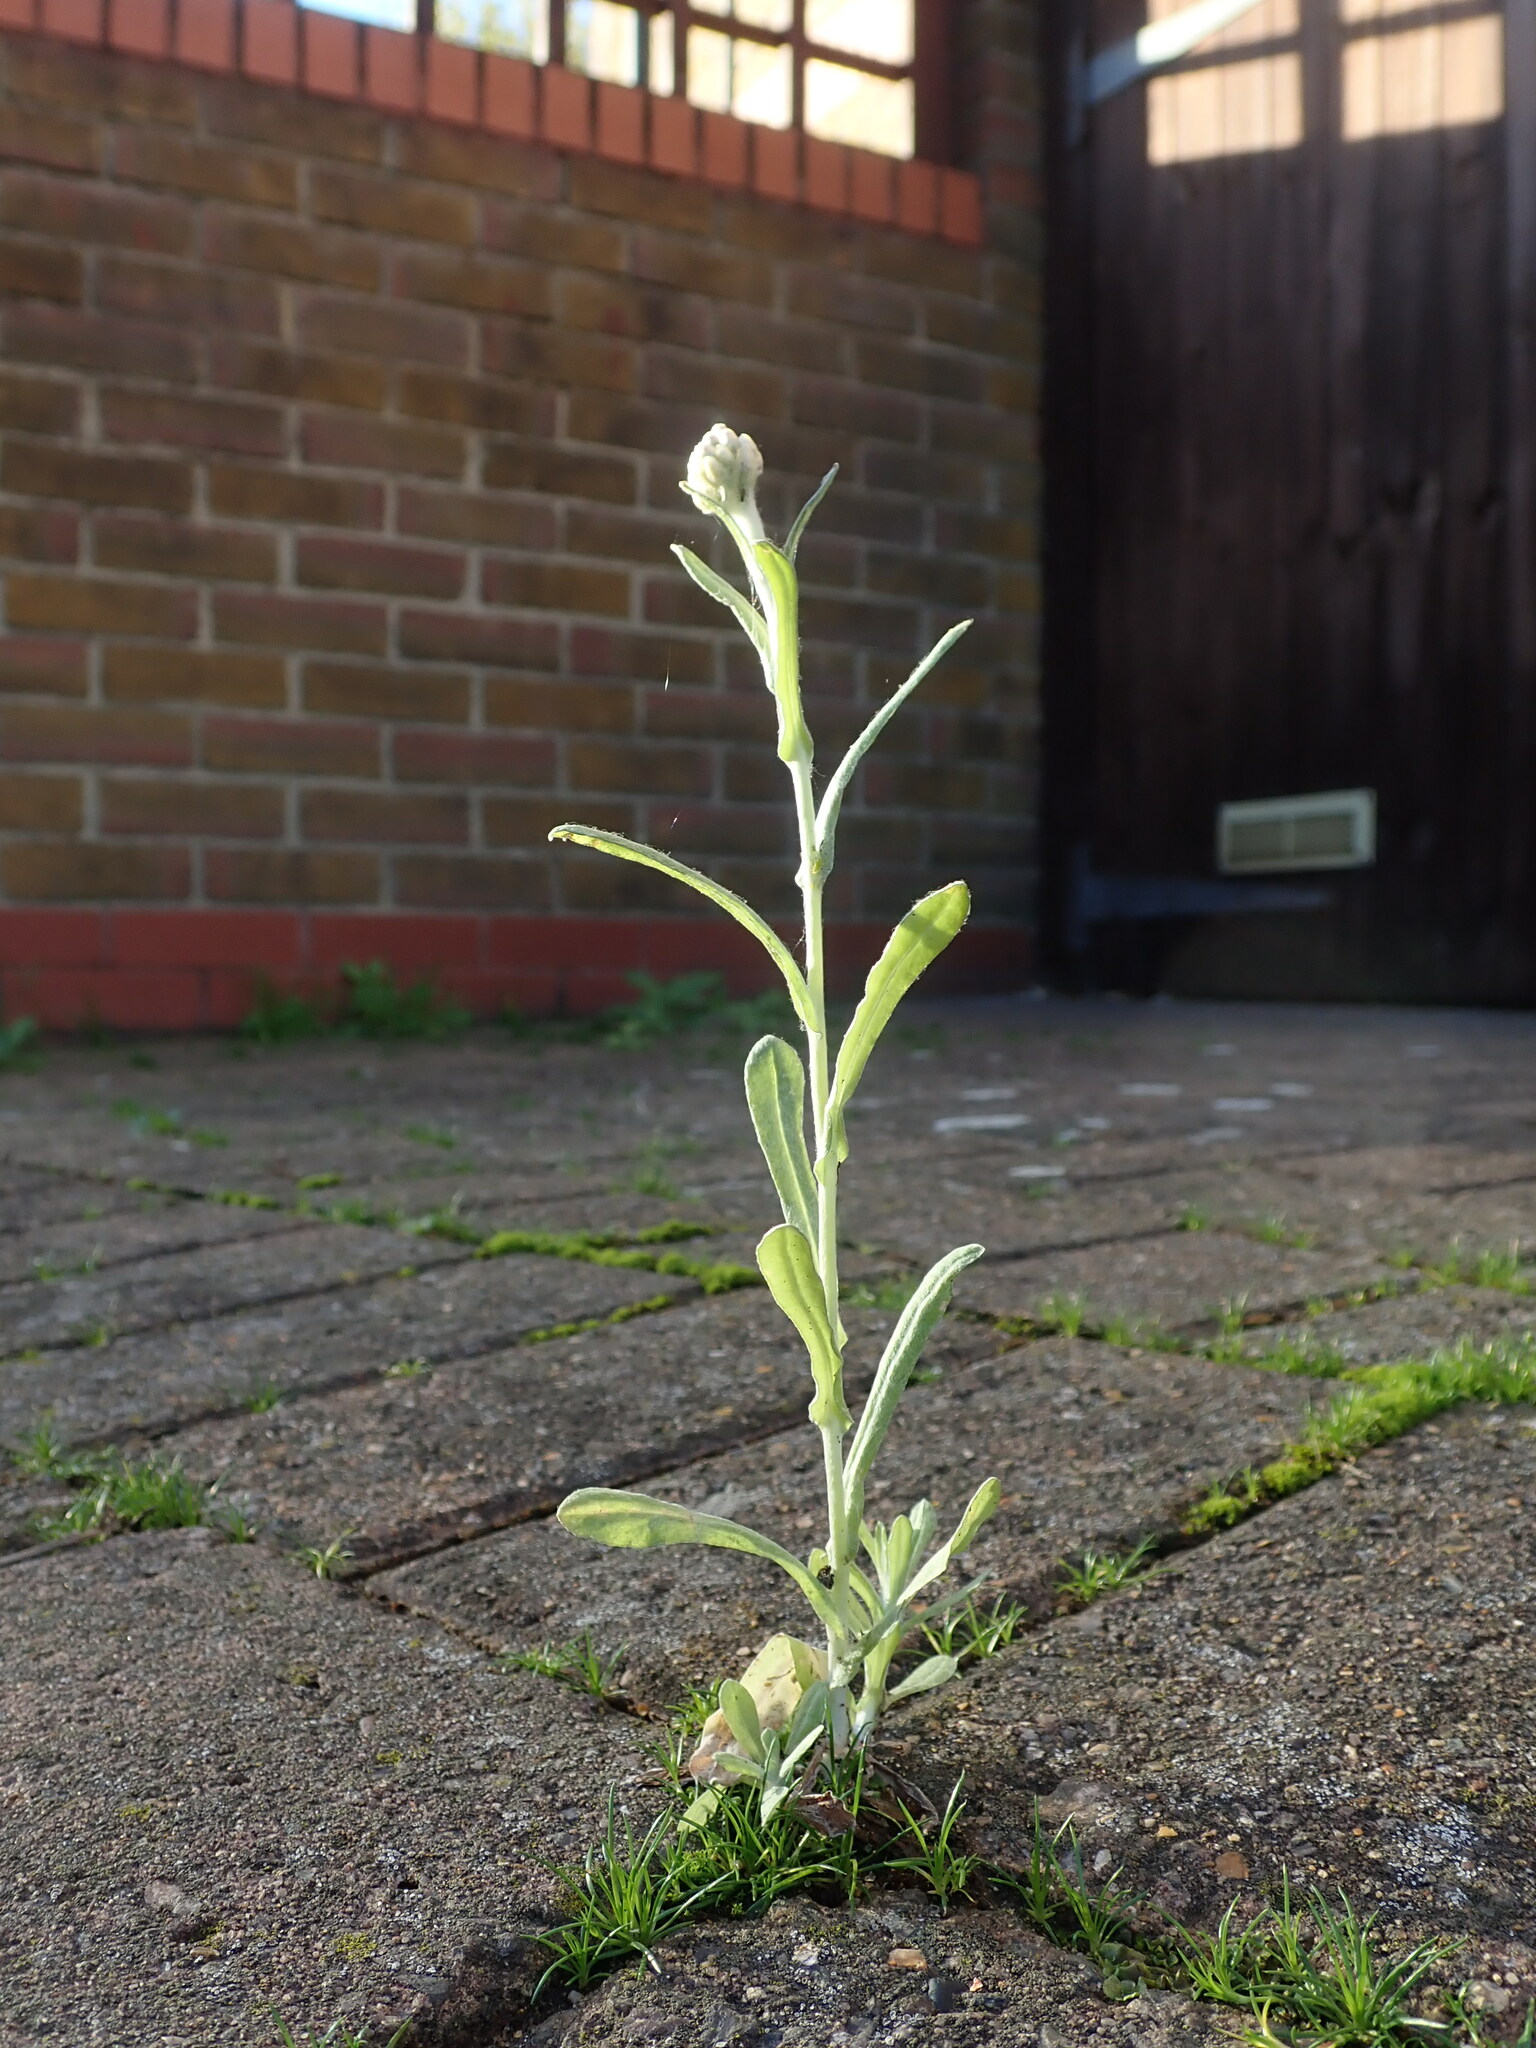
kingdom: Plantae
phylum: Tracheophyta
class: Magnoliopsida
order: Asterales
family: Asteraceae
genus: Helichrysum
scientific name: Helichrysum luteoalbum
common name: Daisy
